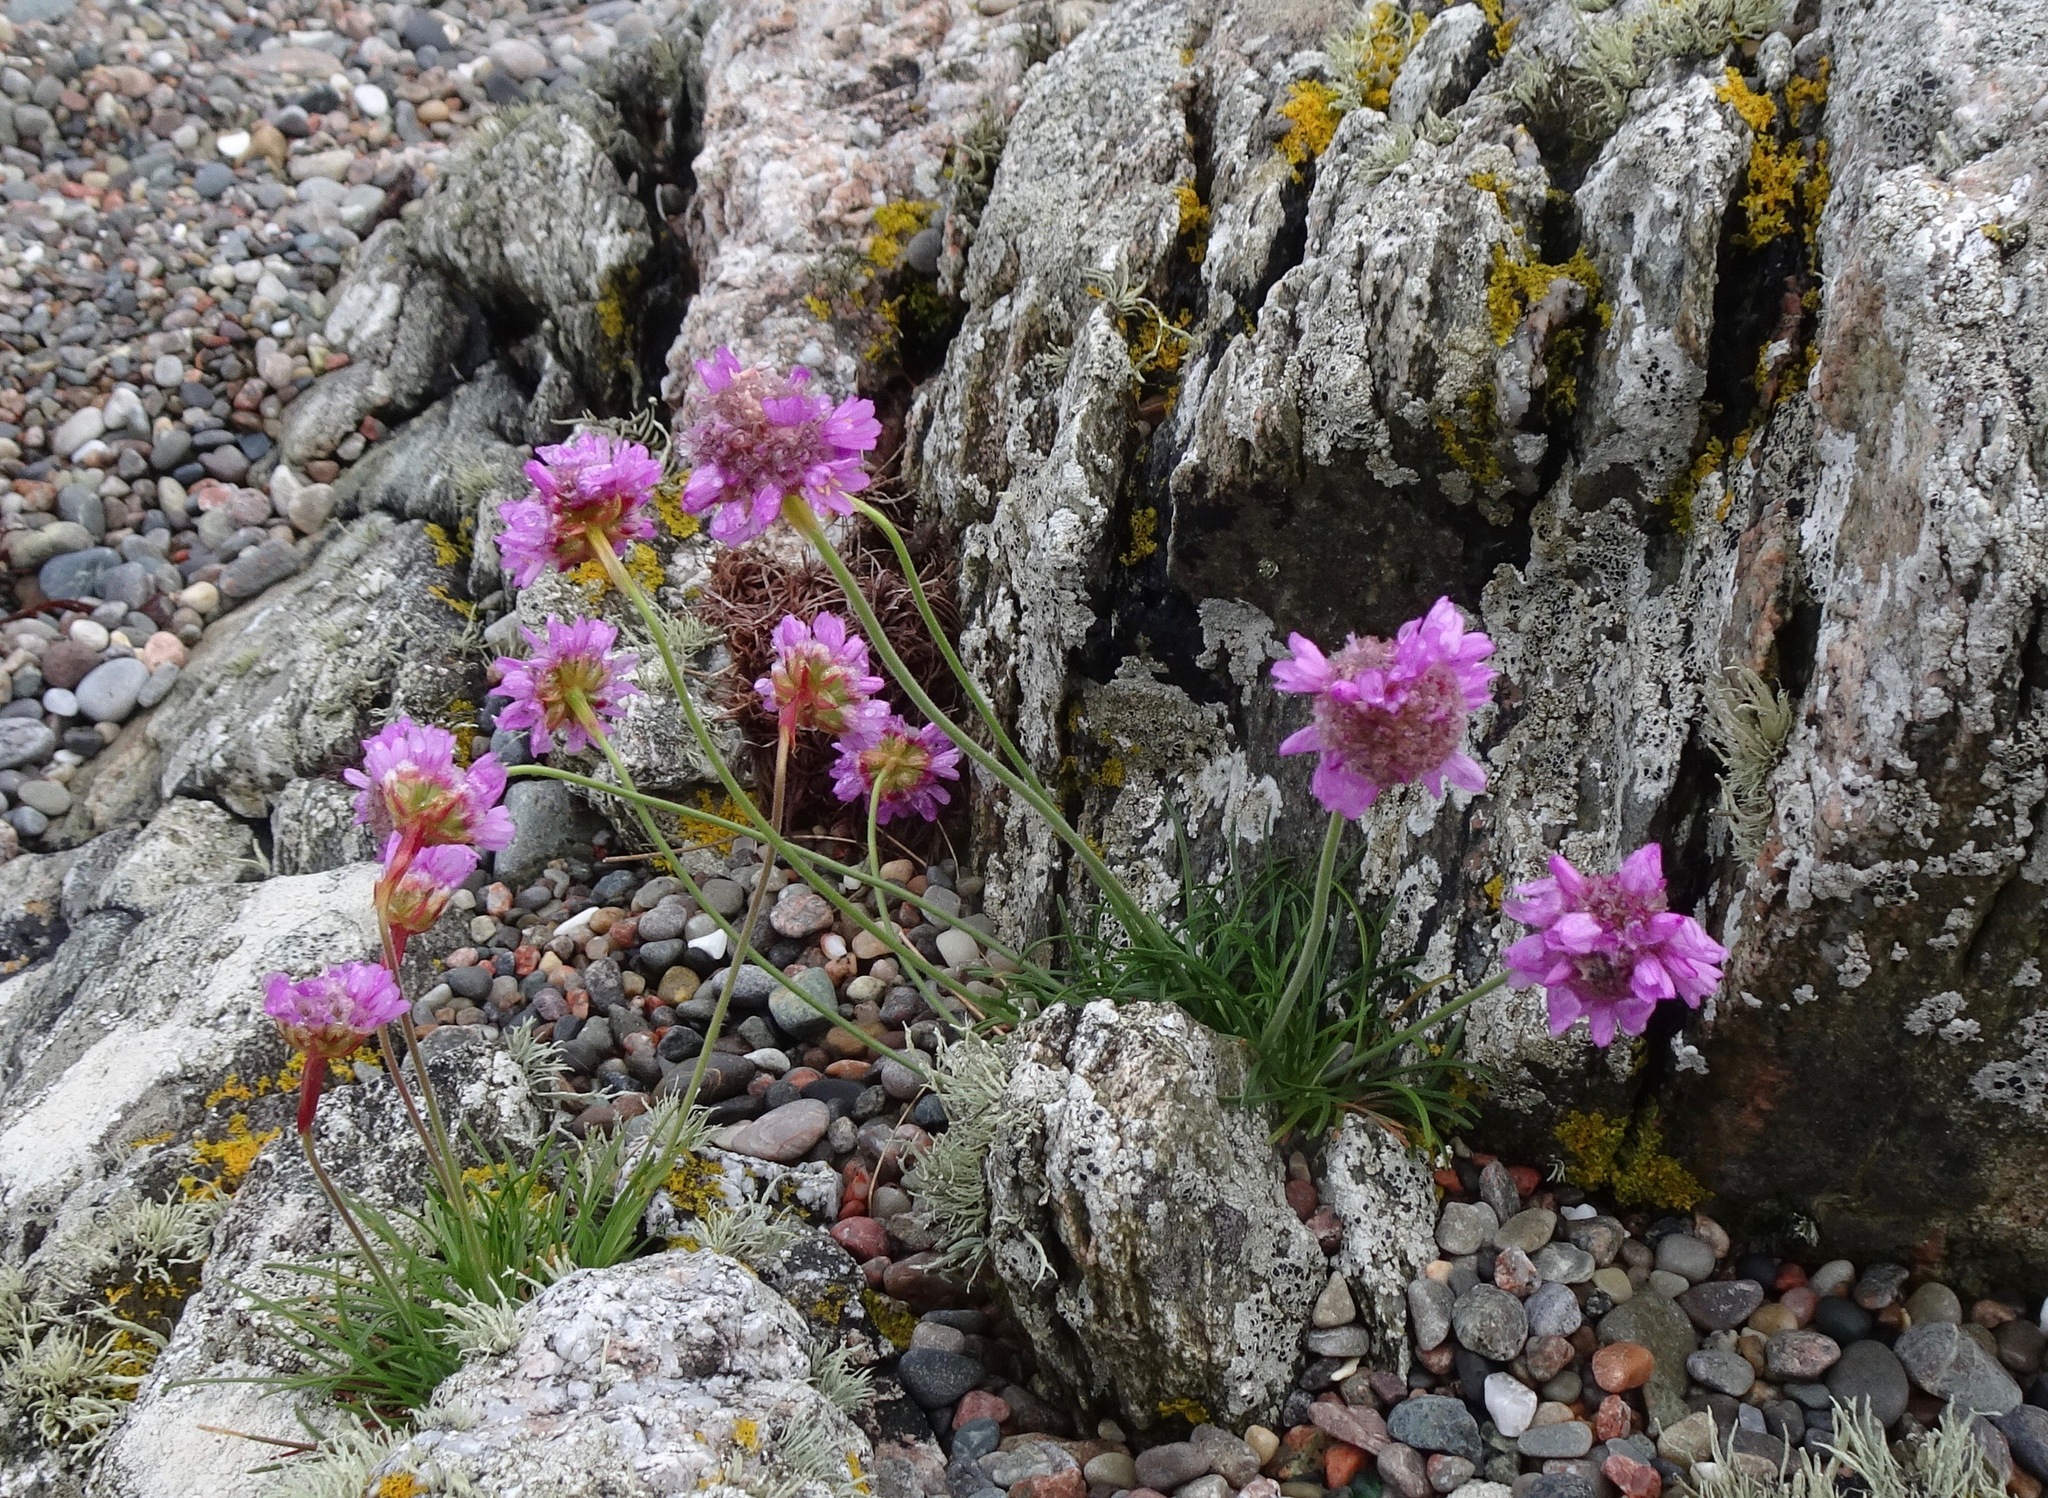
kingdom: Plantae
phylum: Tracheophyta
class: Magnoliopsida
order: Caryophyllales
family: Plumbaginaceae
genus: Armeria
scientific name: Armeria maritima
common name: Thrift
